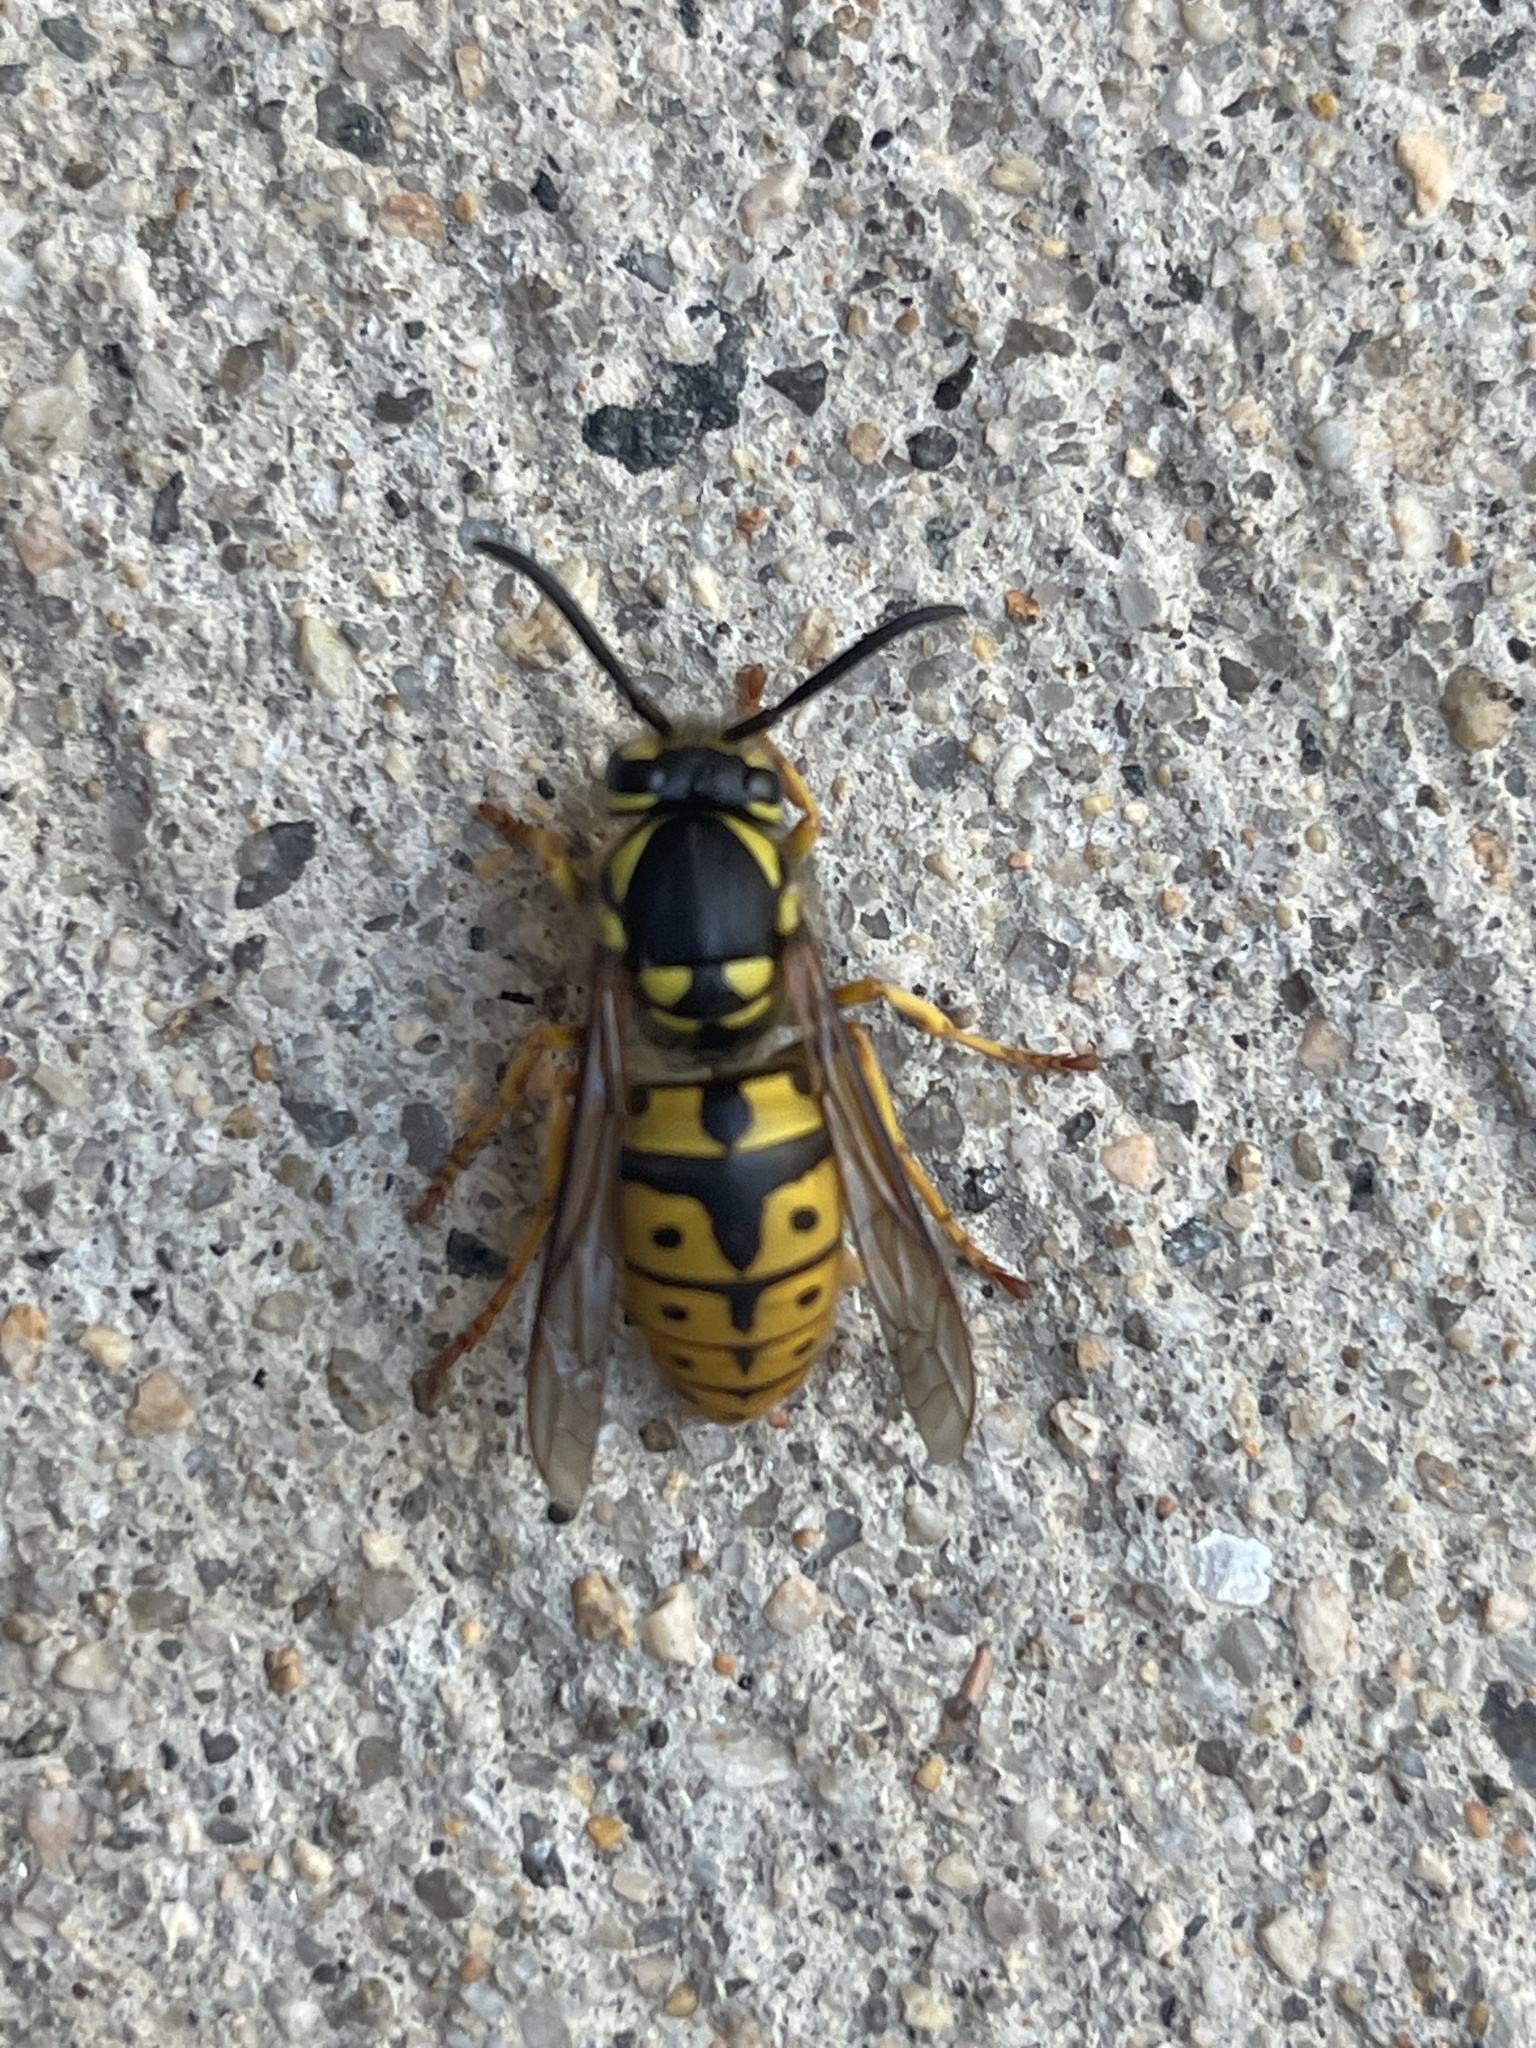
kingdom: Animalia
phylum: Arthropoda
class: Insecta
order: Hymenoptera
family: Vespidae
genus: Vespula
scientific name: Vespula germanica
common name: German wasp
